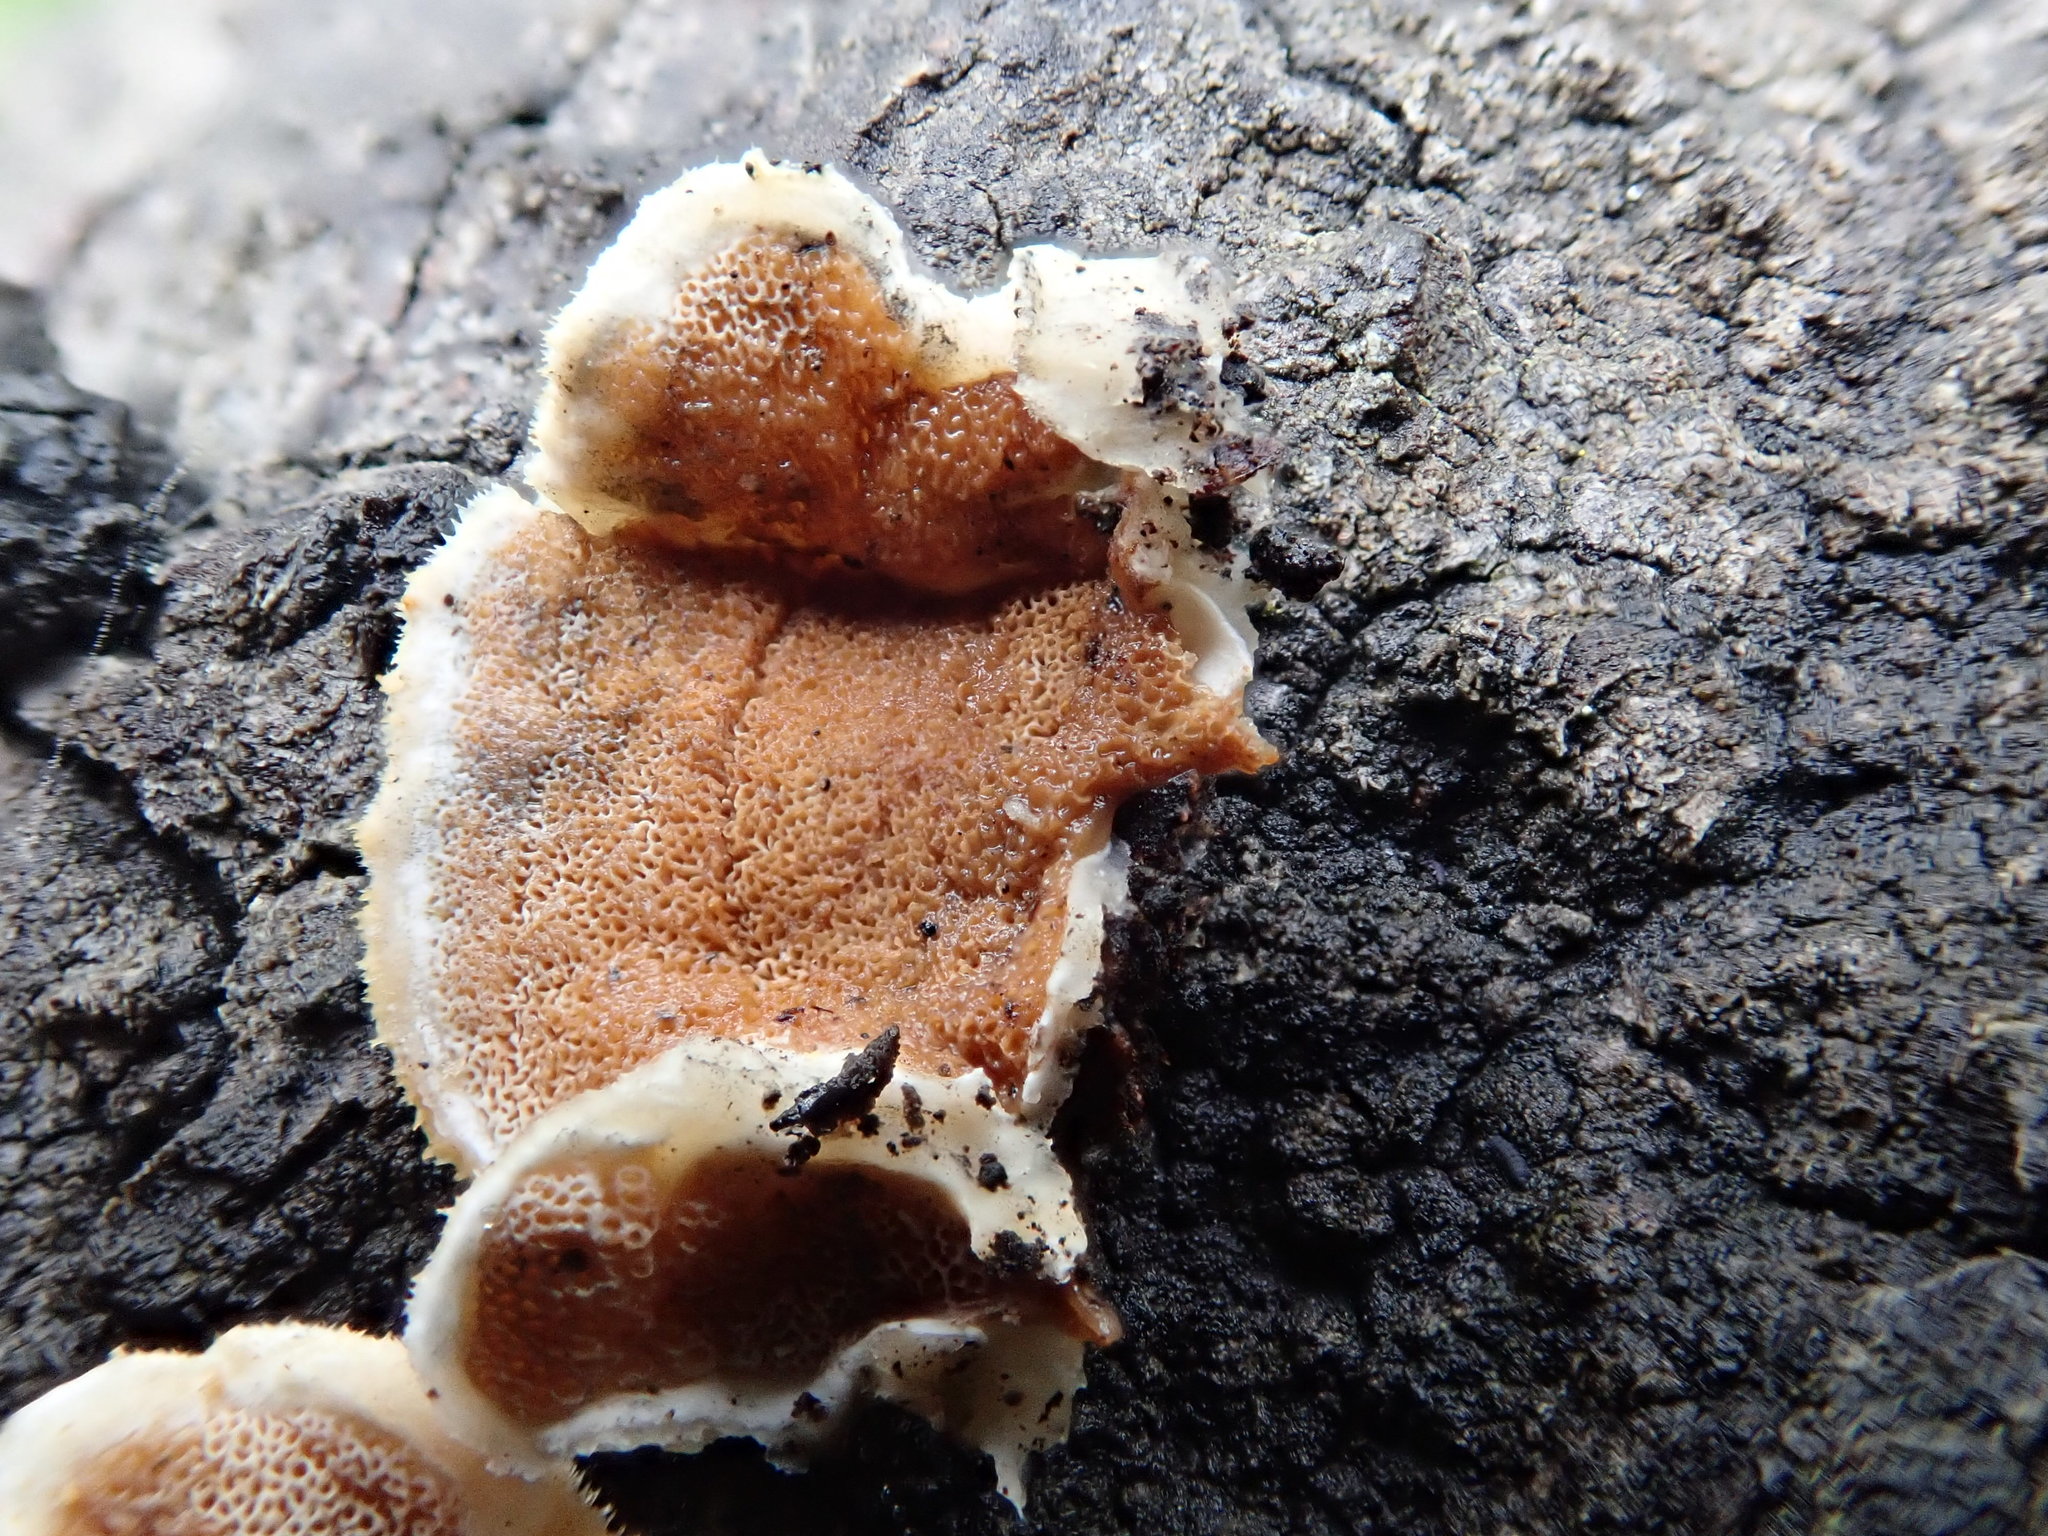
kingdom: Fungi
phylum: Basidiomycota
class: Agaricomycetes
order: Polyporales
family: Irpicaceae
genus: Vitreoporus
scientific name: Vitreoporus dichrous
